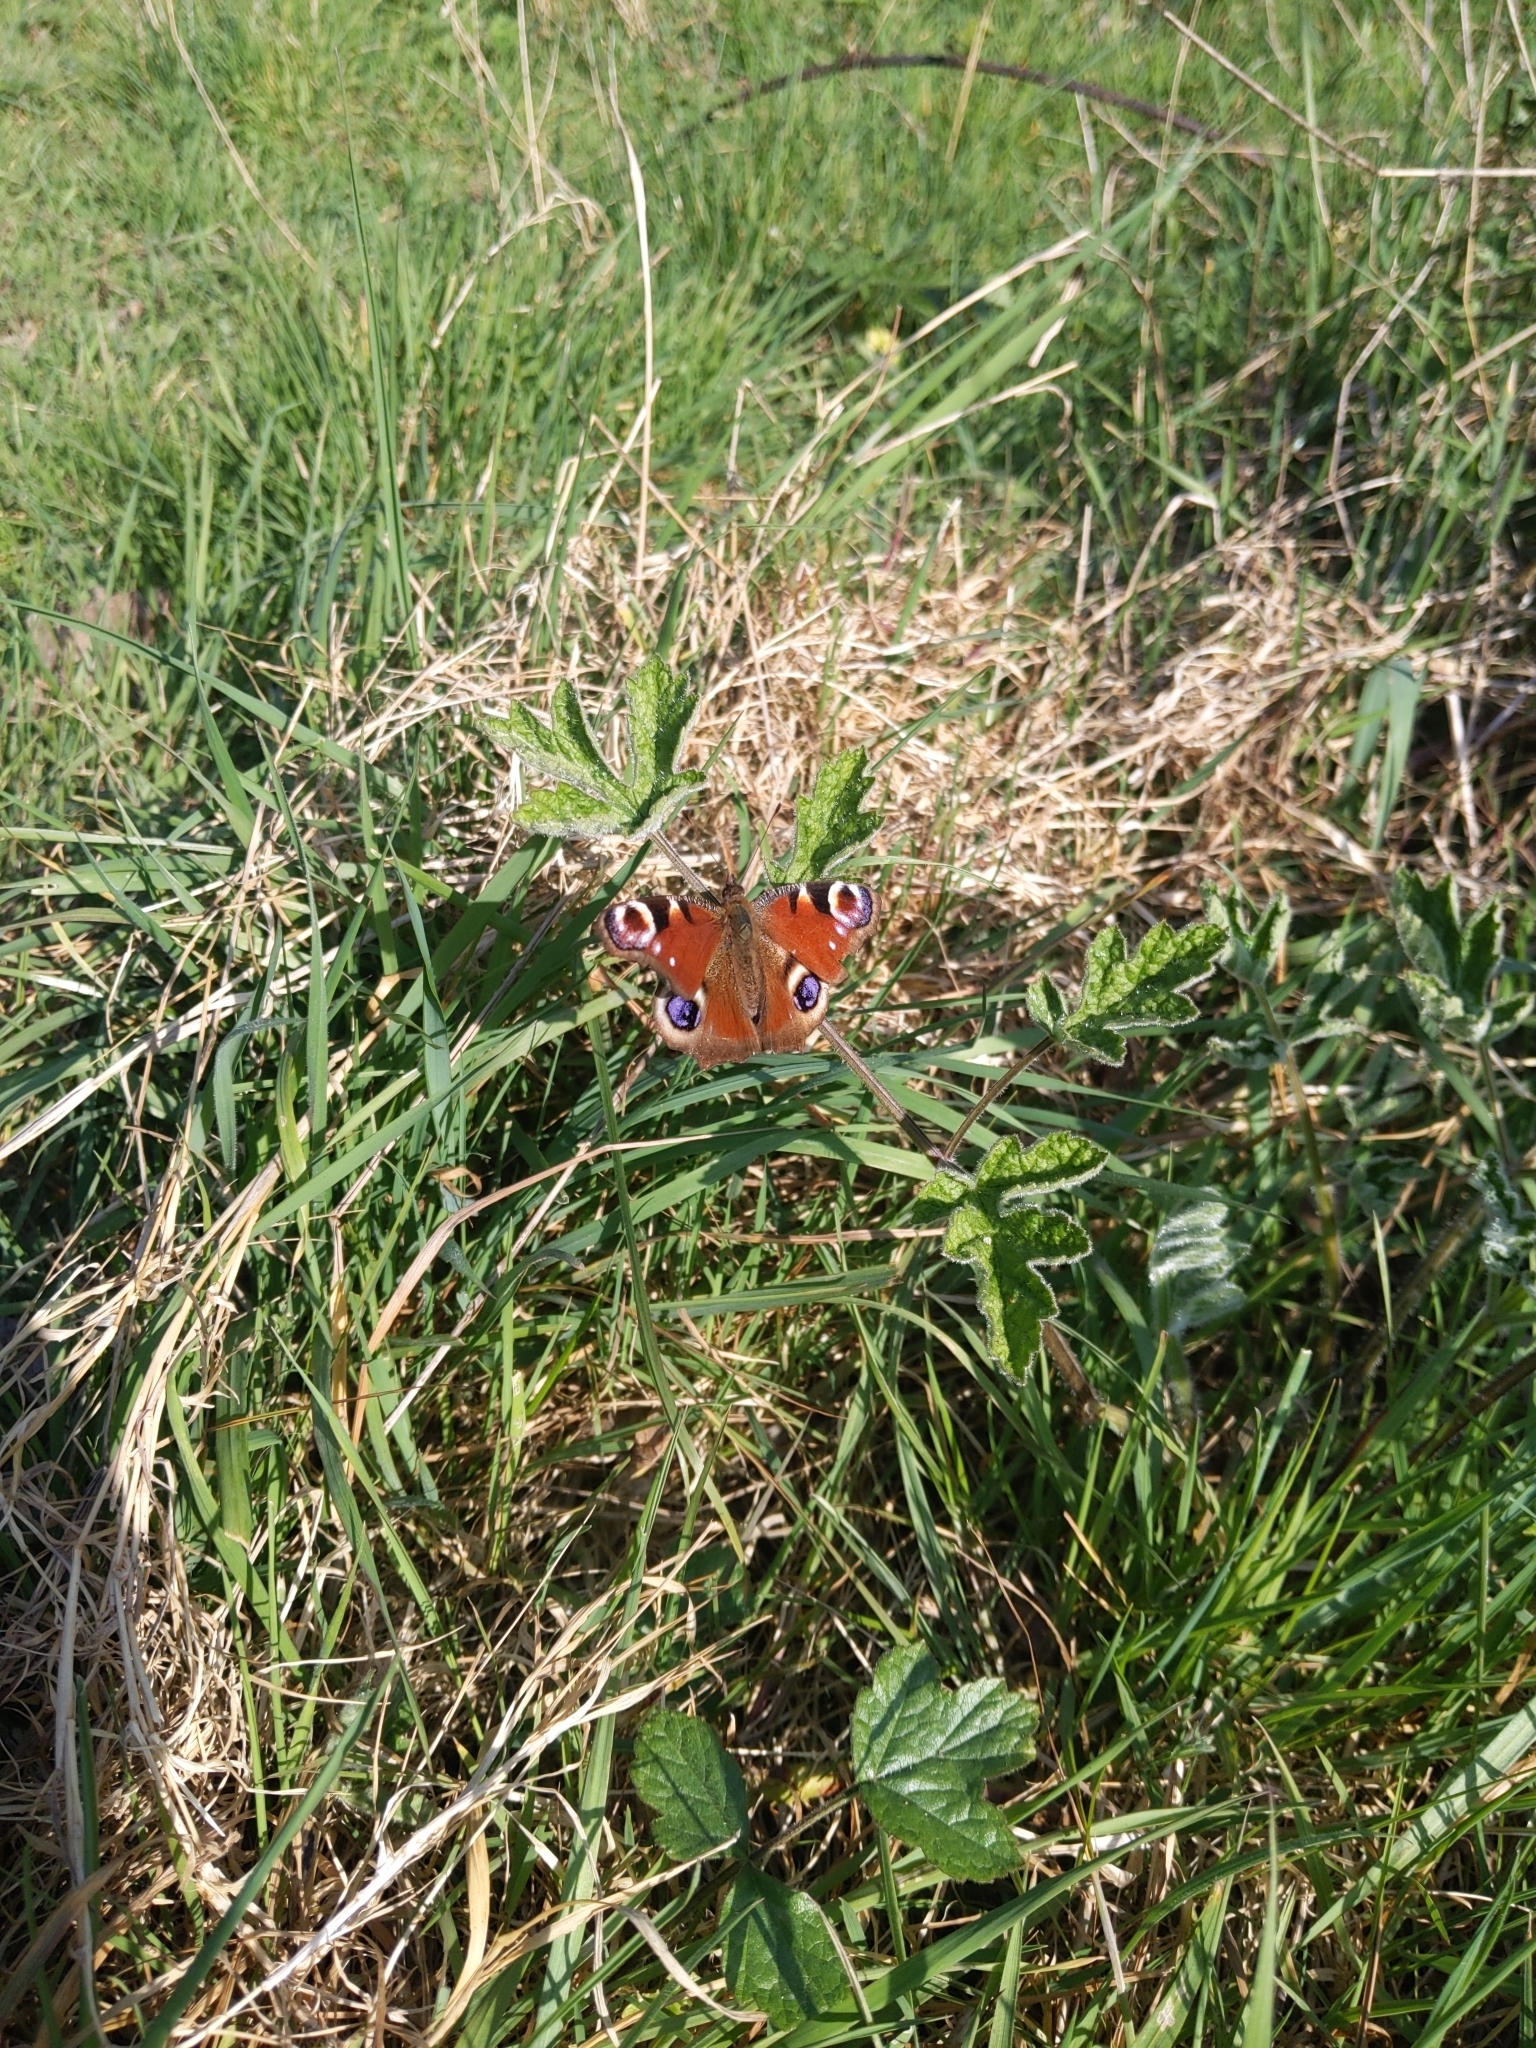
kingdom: Animalia
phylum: Arthropoda
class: Insecta
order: Lepidoptera
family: Nymphalidae
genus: Aglais
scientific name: Aglais io
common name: Peacock
